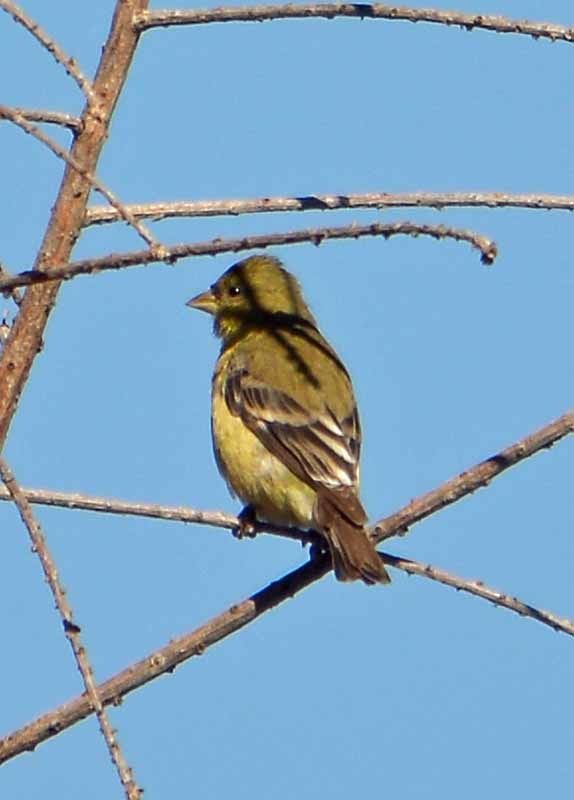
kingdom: Animalia
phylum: Chordata
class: Aves
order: Passeriformes
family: Fringillidae
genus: Spinus
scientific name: Spinus psaltria
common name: Lesser goldfinch
